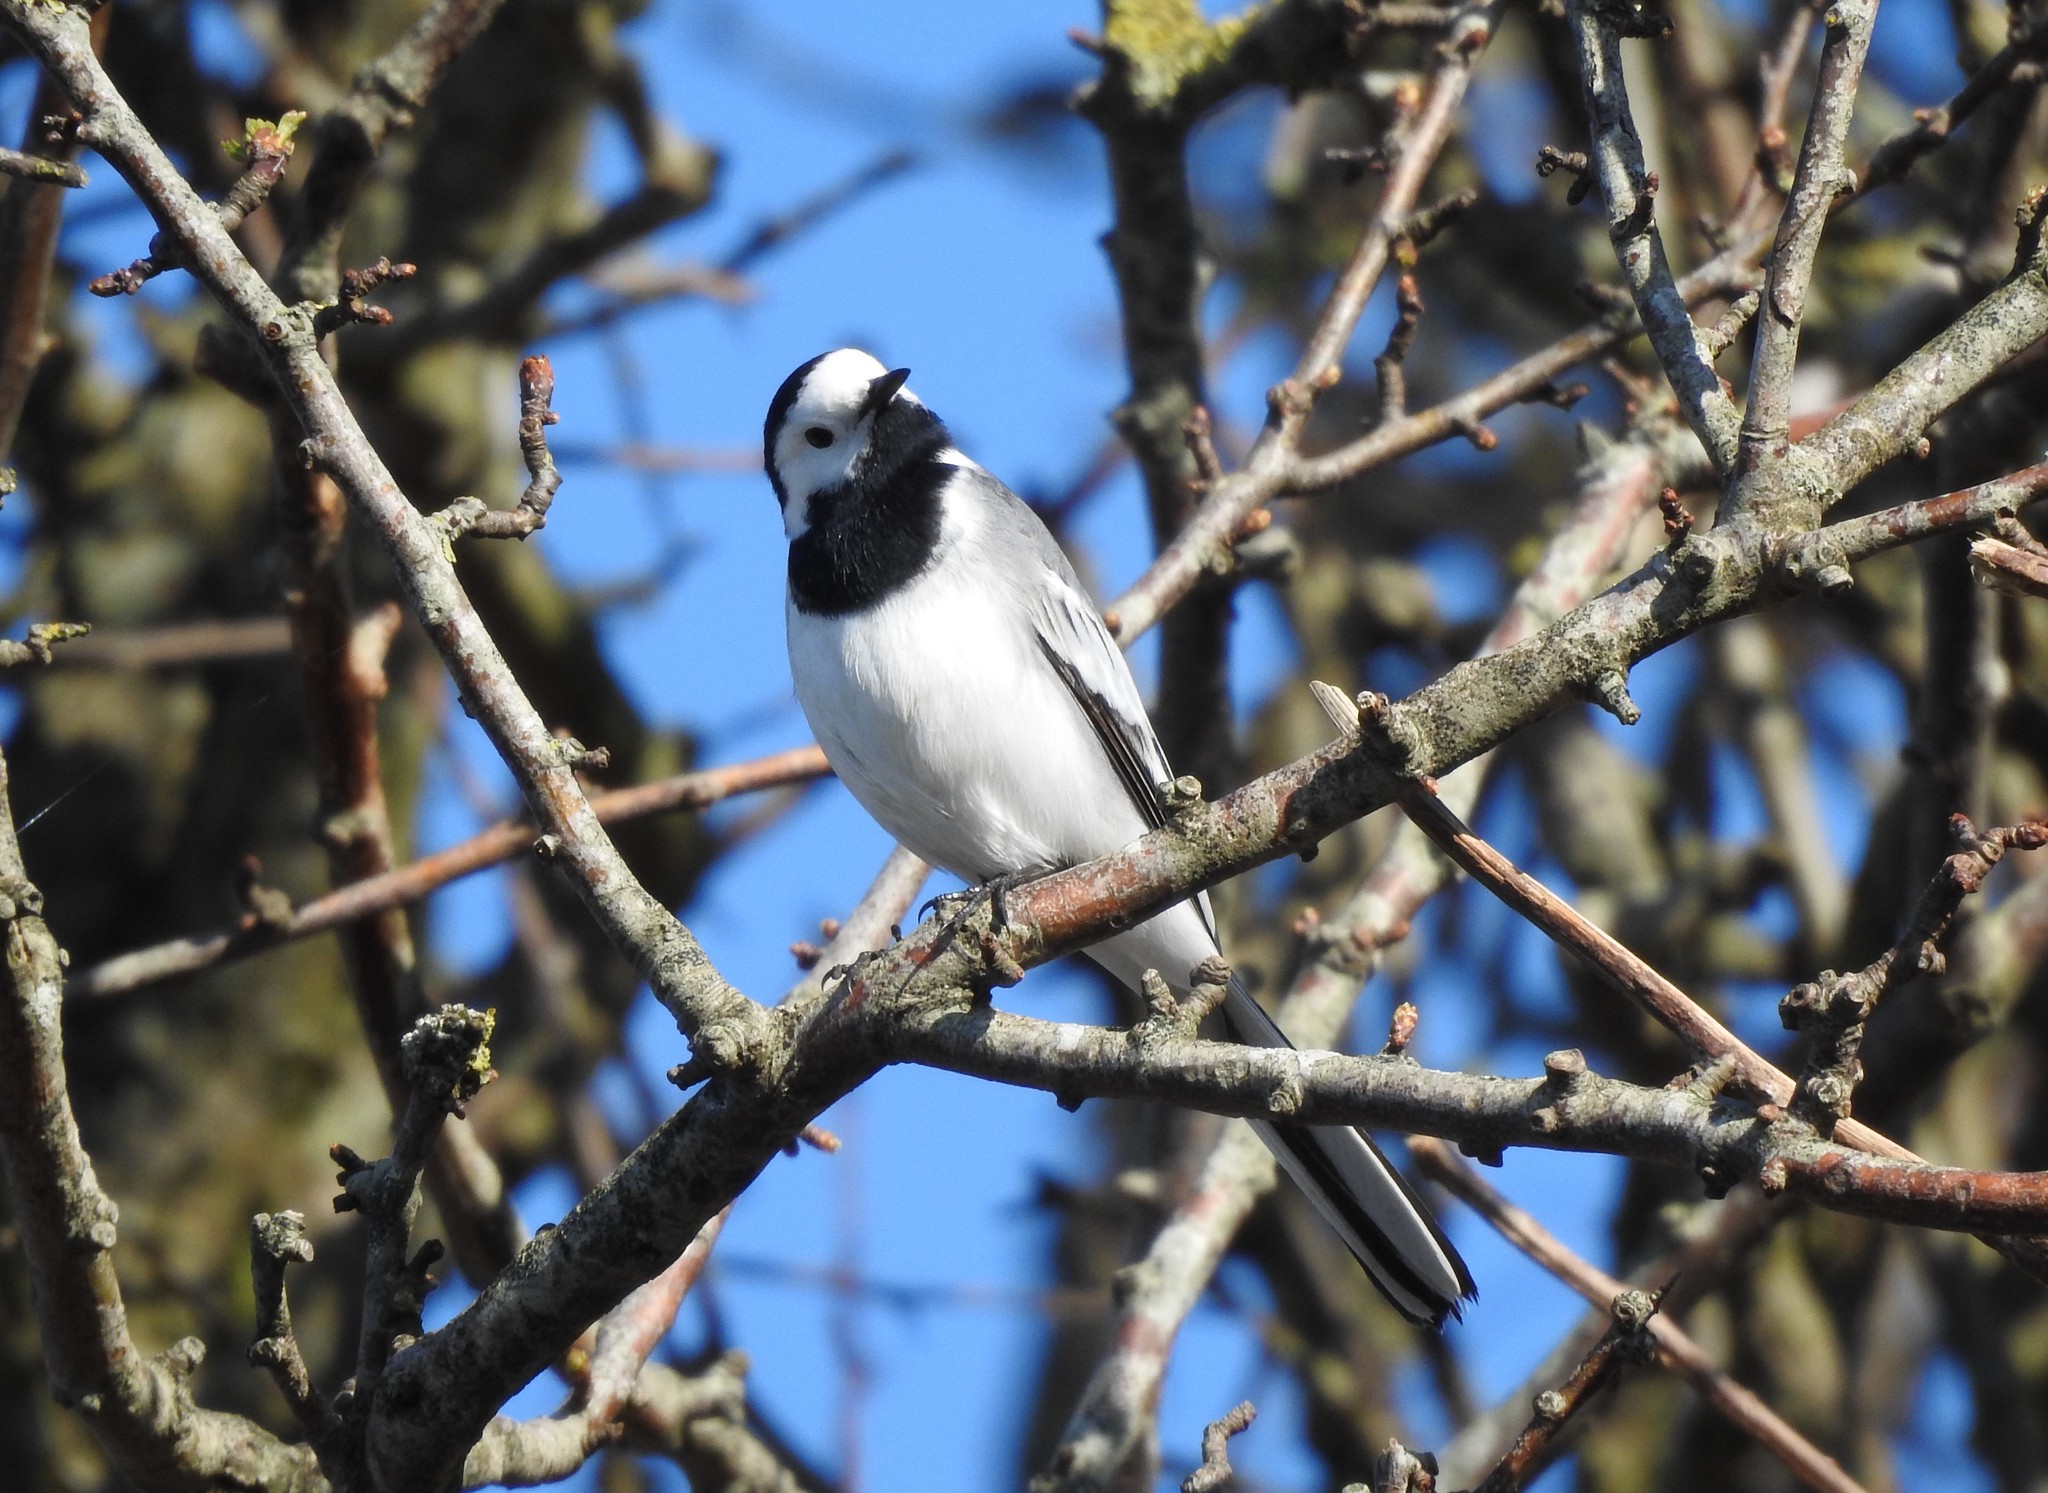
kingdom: Animalia
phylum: Chordata
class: Aves
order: Passeriformes
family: Motacillidae
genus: Motacilla
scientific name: Motacilla alba
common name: White wagtail
